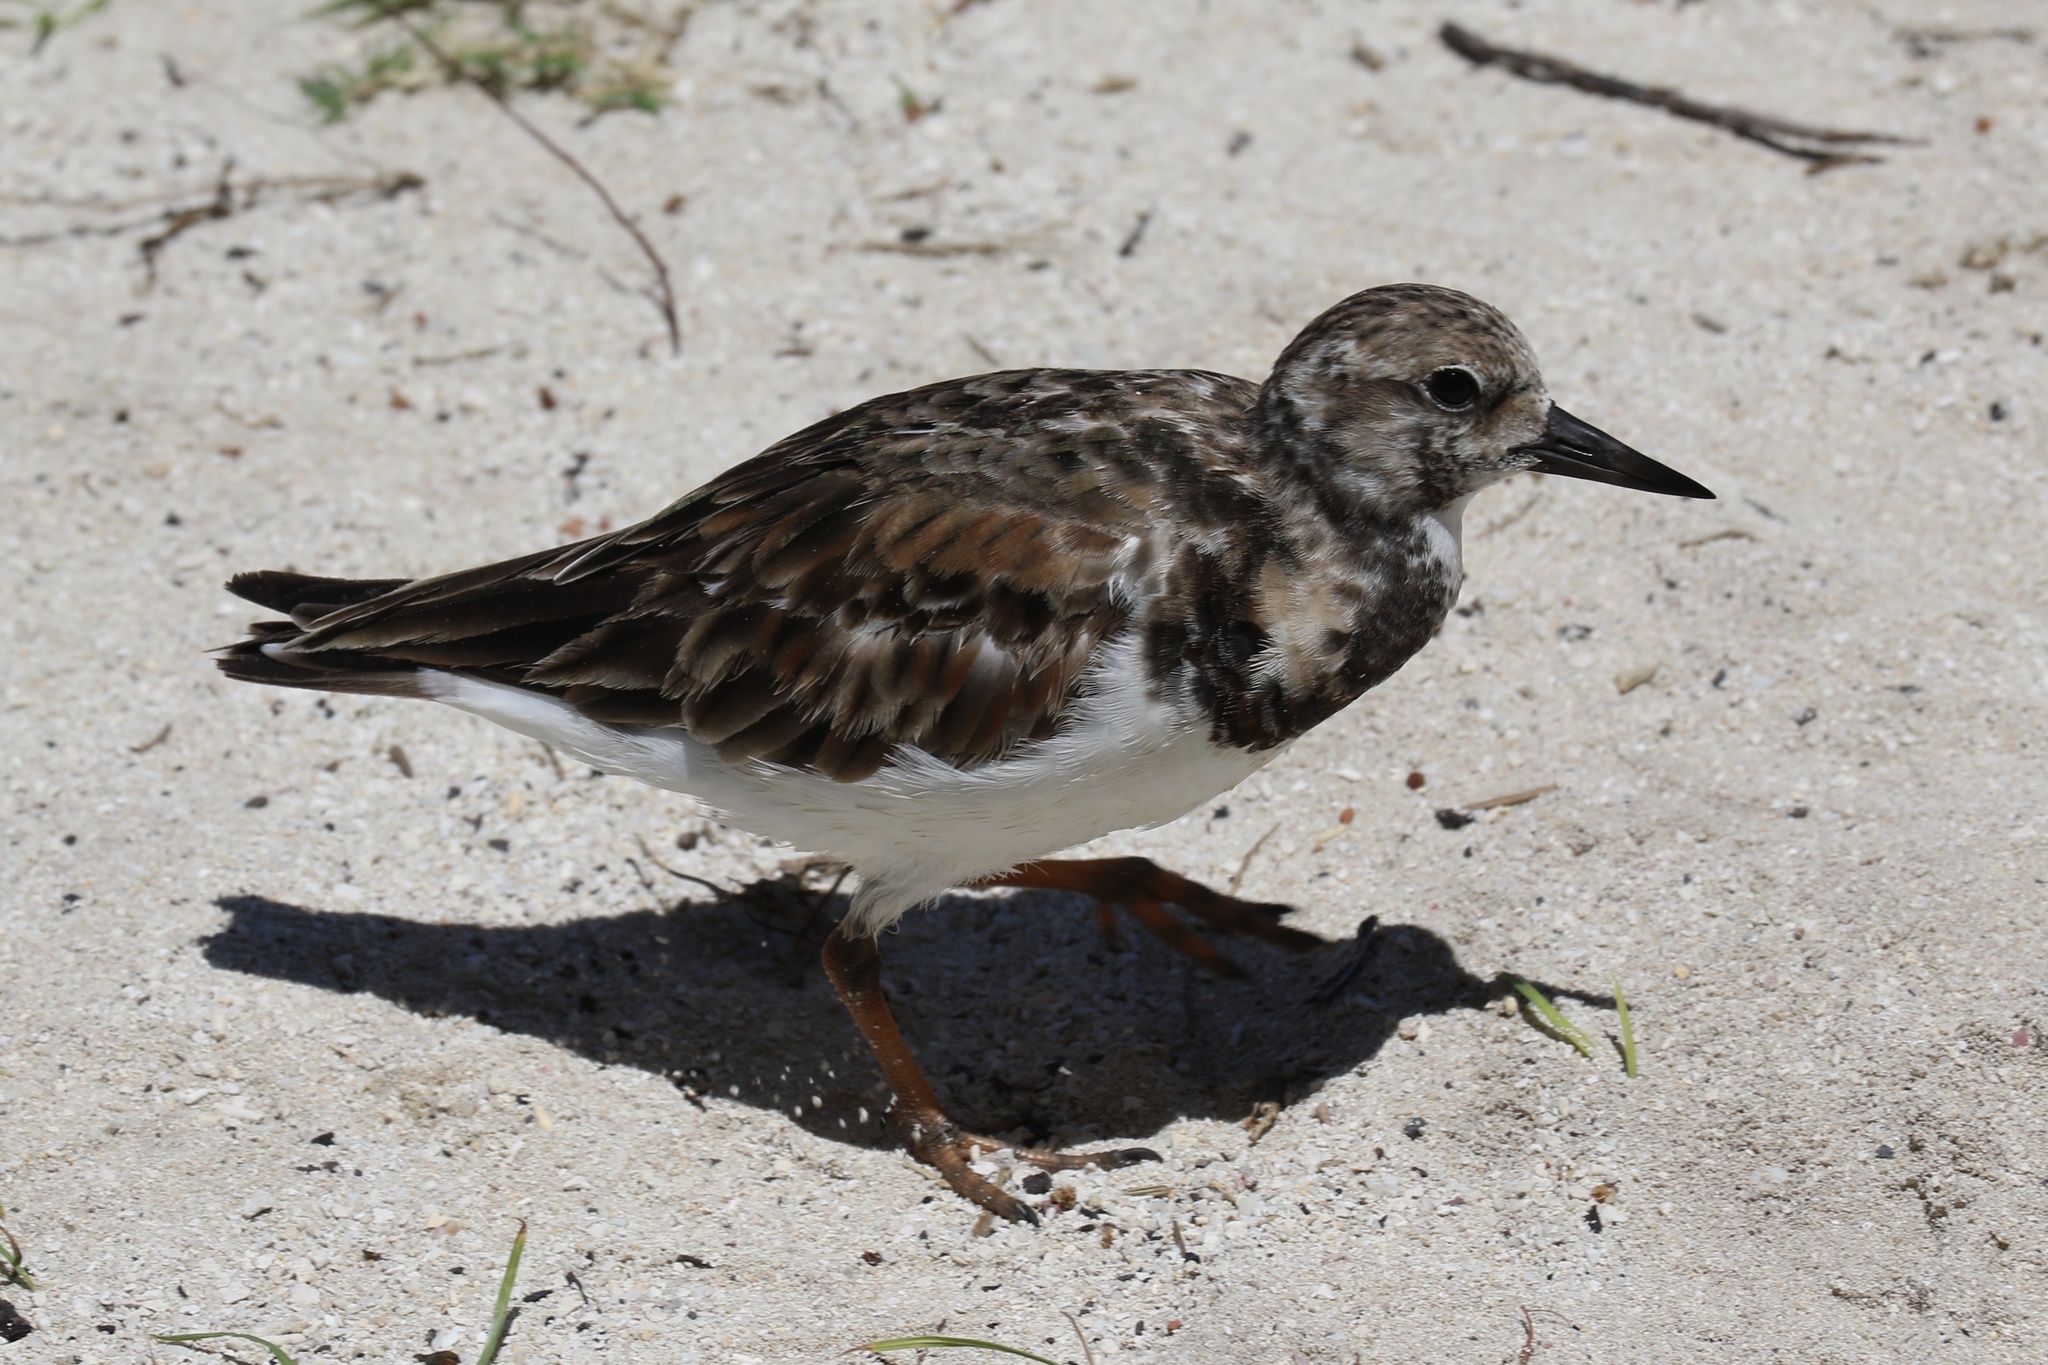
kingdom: Animalia
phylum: Chordata
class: Aves
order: Charadriiformes
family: Scolopacidae
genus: Arenaria
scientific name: Arenaria interpres
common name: Ruddy turnstone
